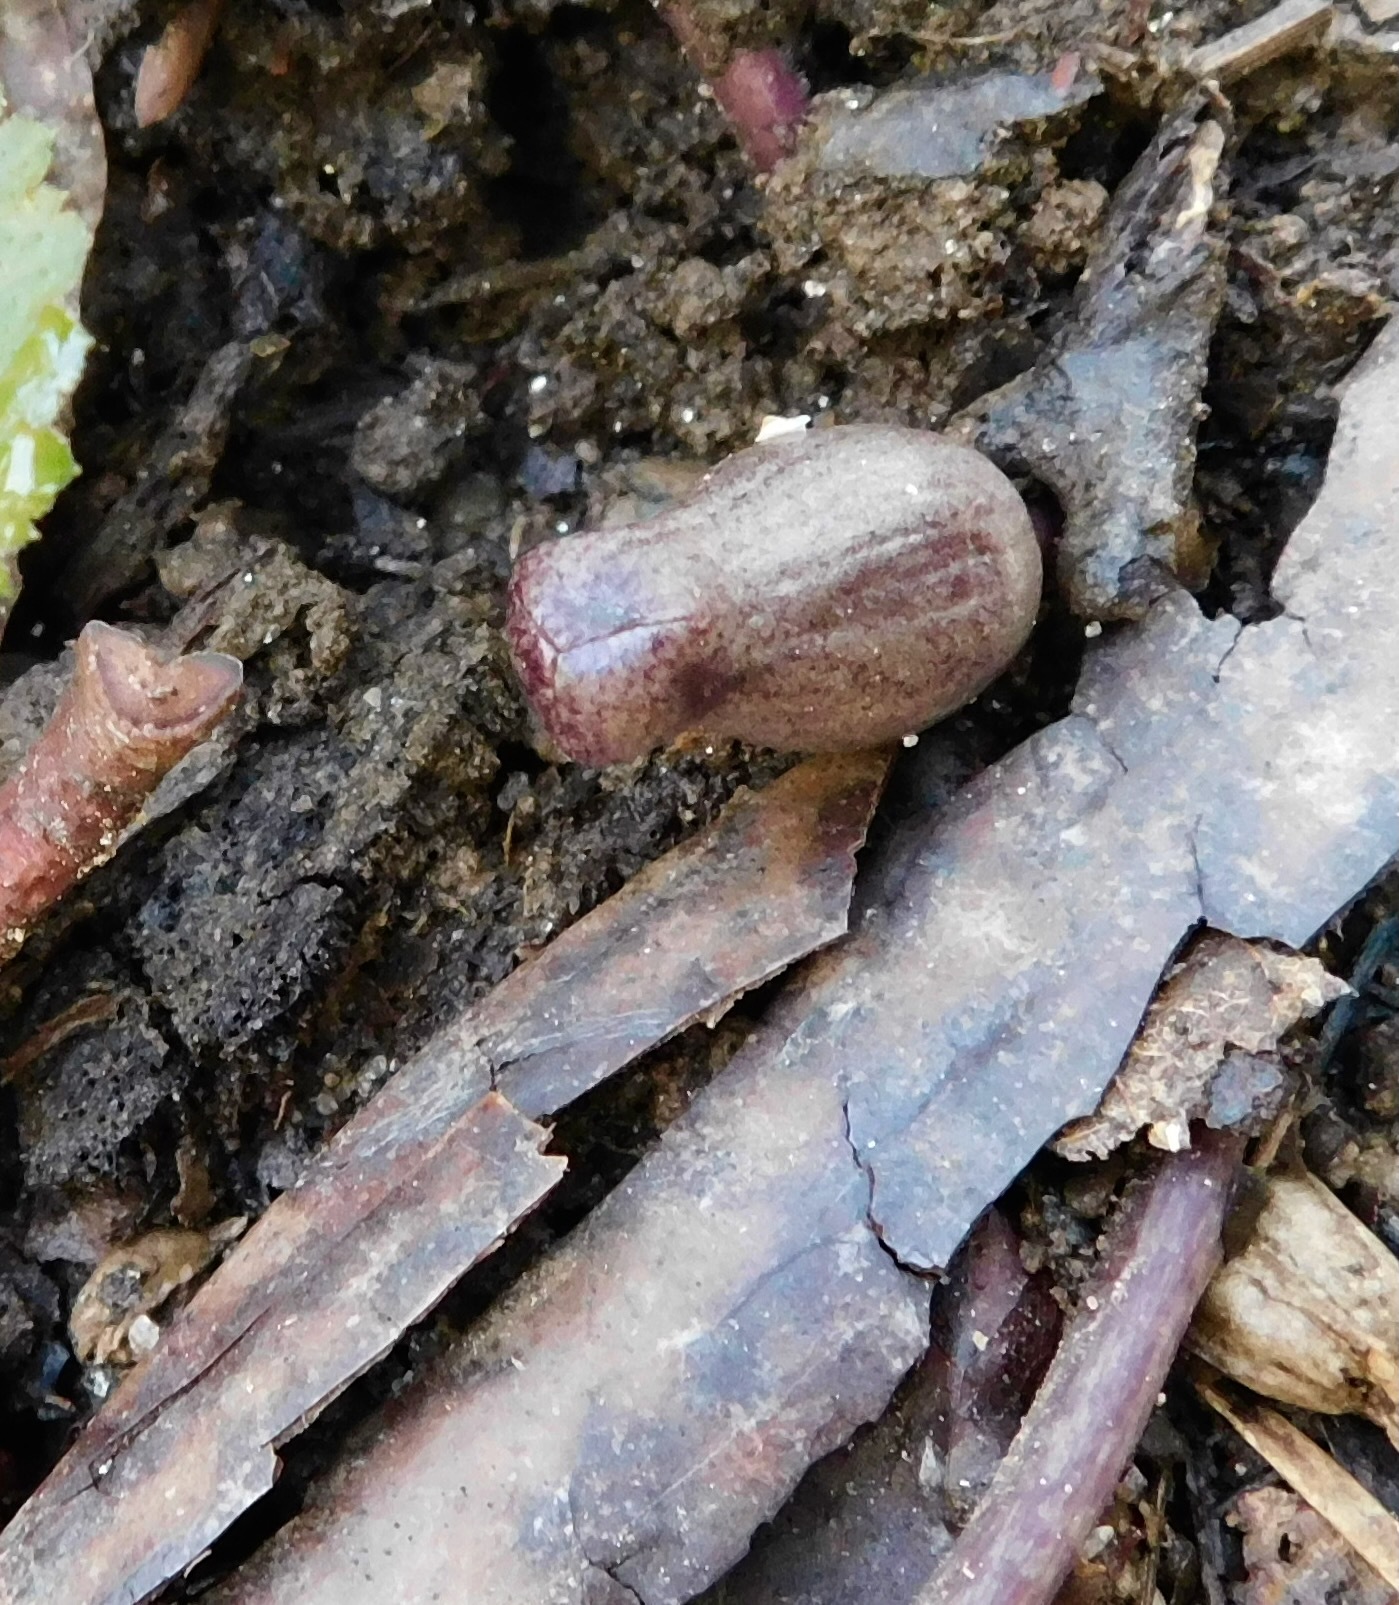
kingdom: Plantae
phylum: Tracheophyta
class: Magnoliopsida
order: Piperales
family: Aristolochiaceae
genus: Hexastylis
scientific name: Hexastylis arifolia
